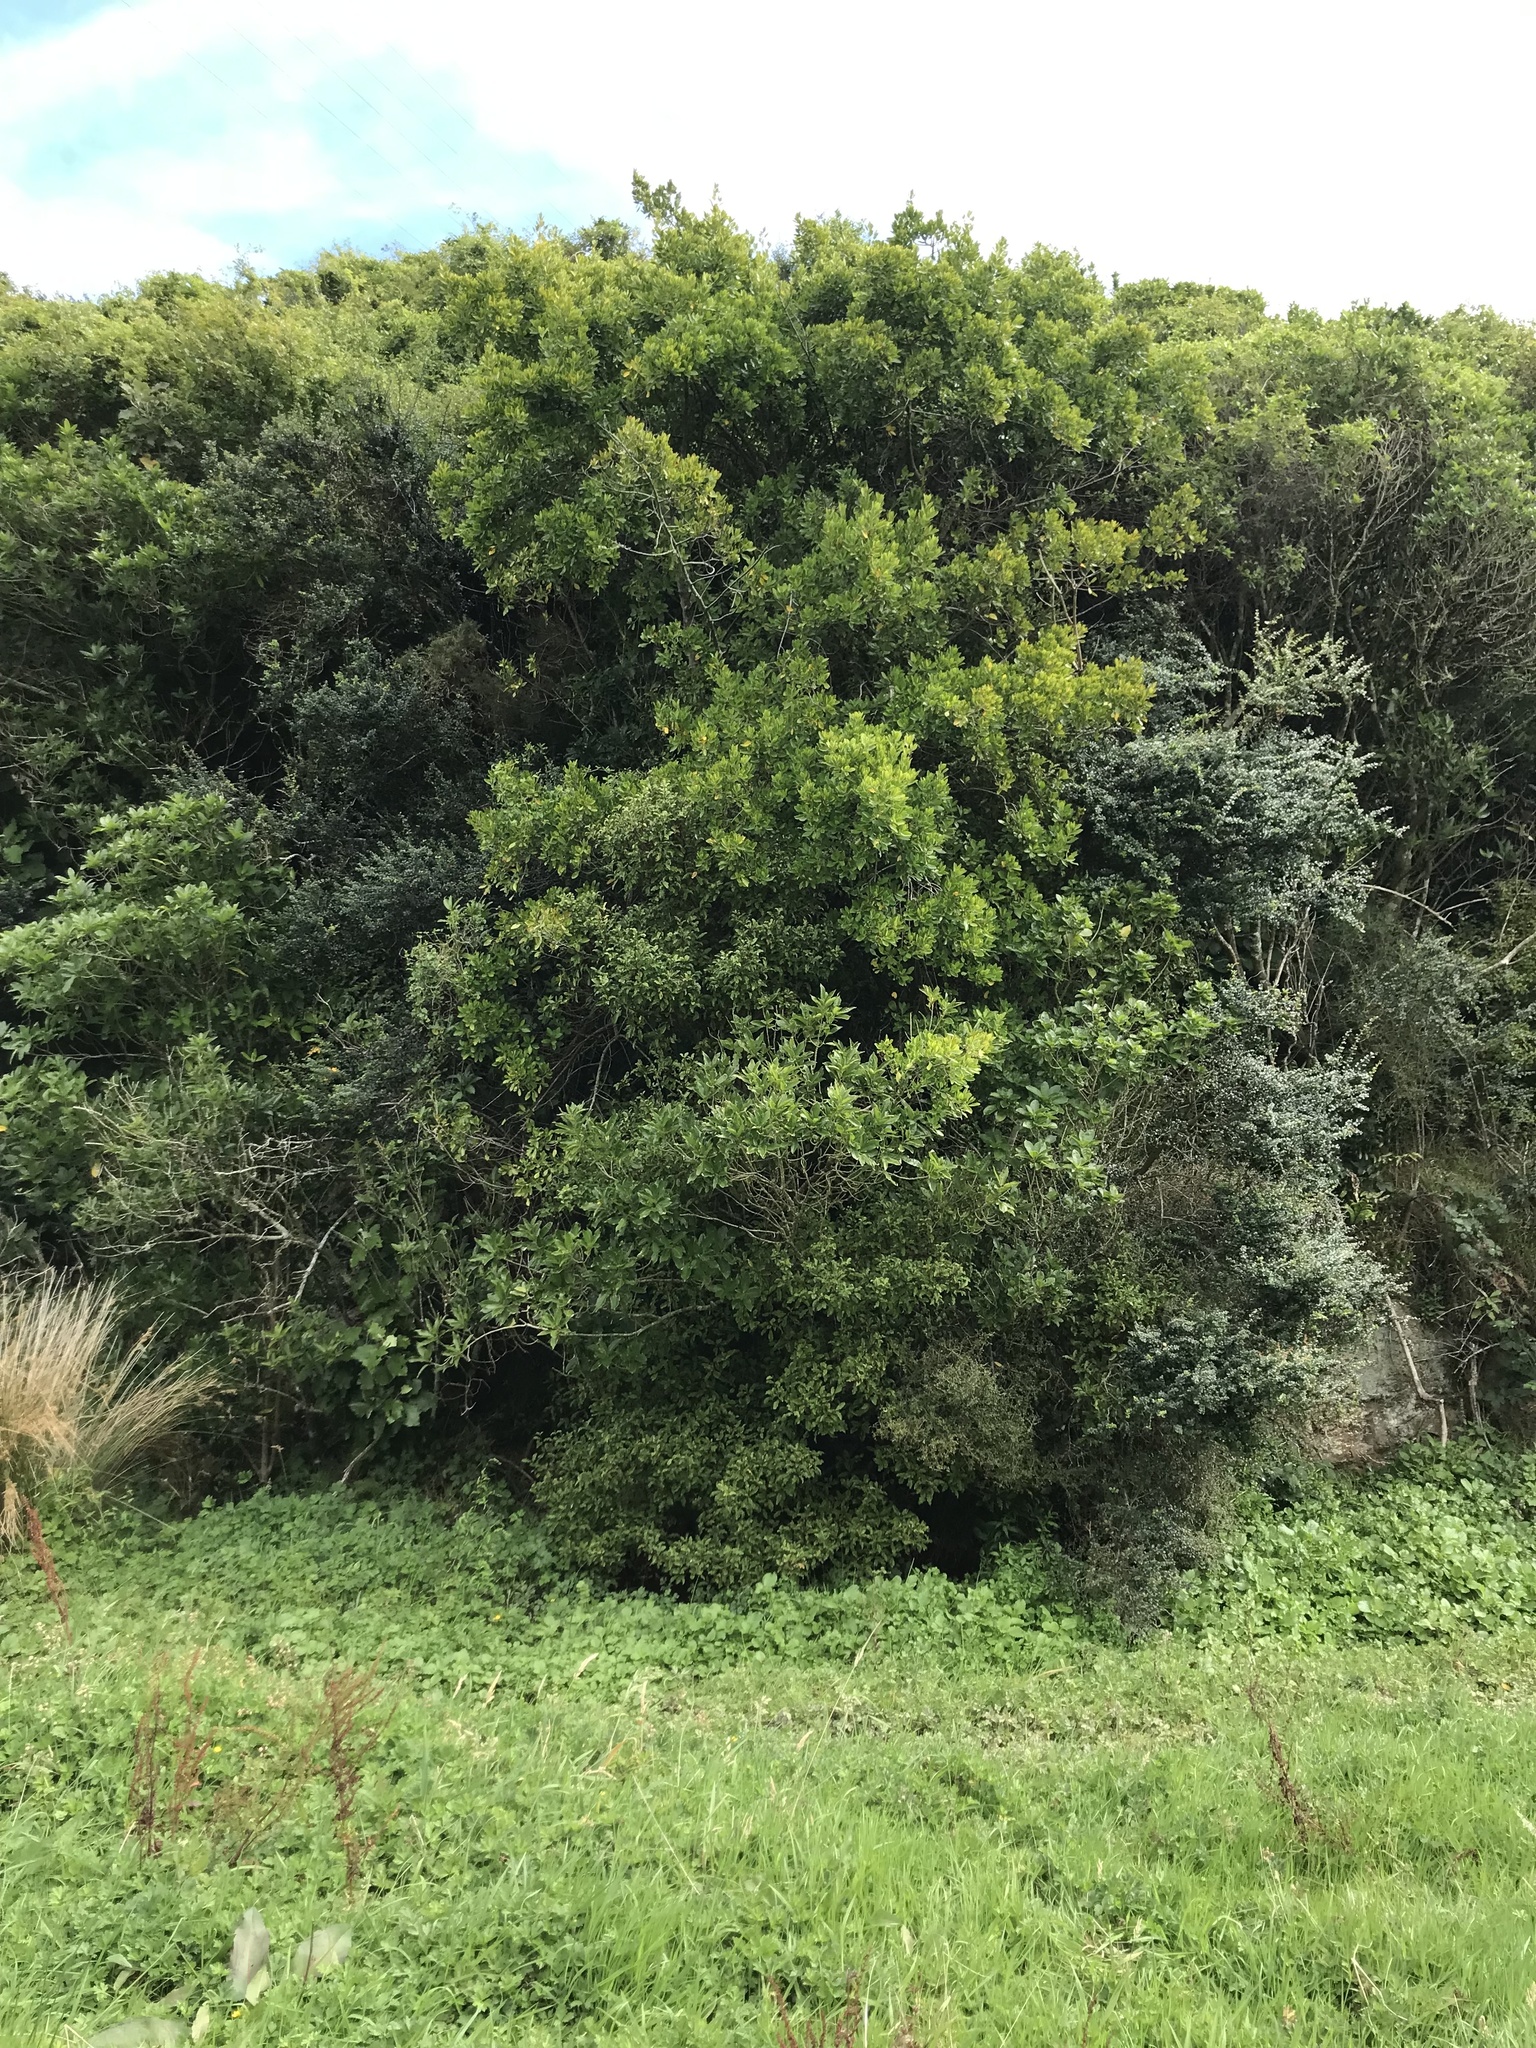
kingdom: Plantae
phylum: Tracheophyta
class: Magnoliopsida
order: Rosales
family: Rhamnaceae
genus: Rhamnus
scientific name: Rhamnus alaternus
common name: Mediterranean buckthorn
